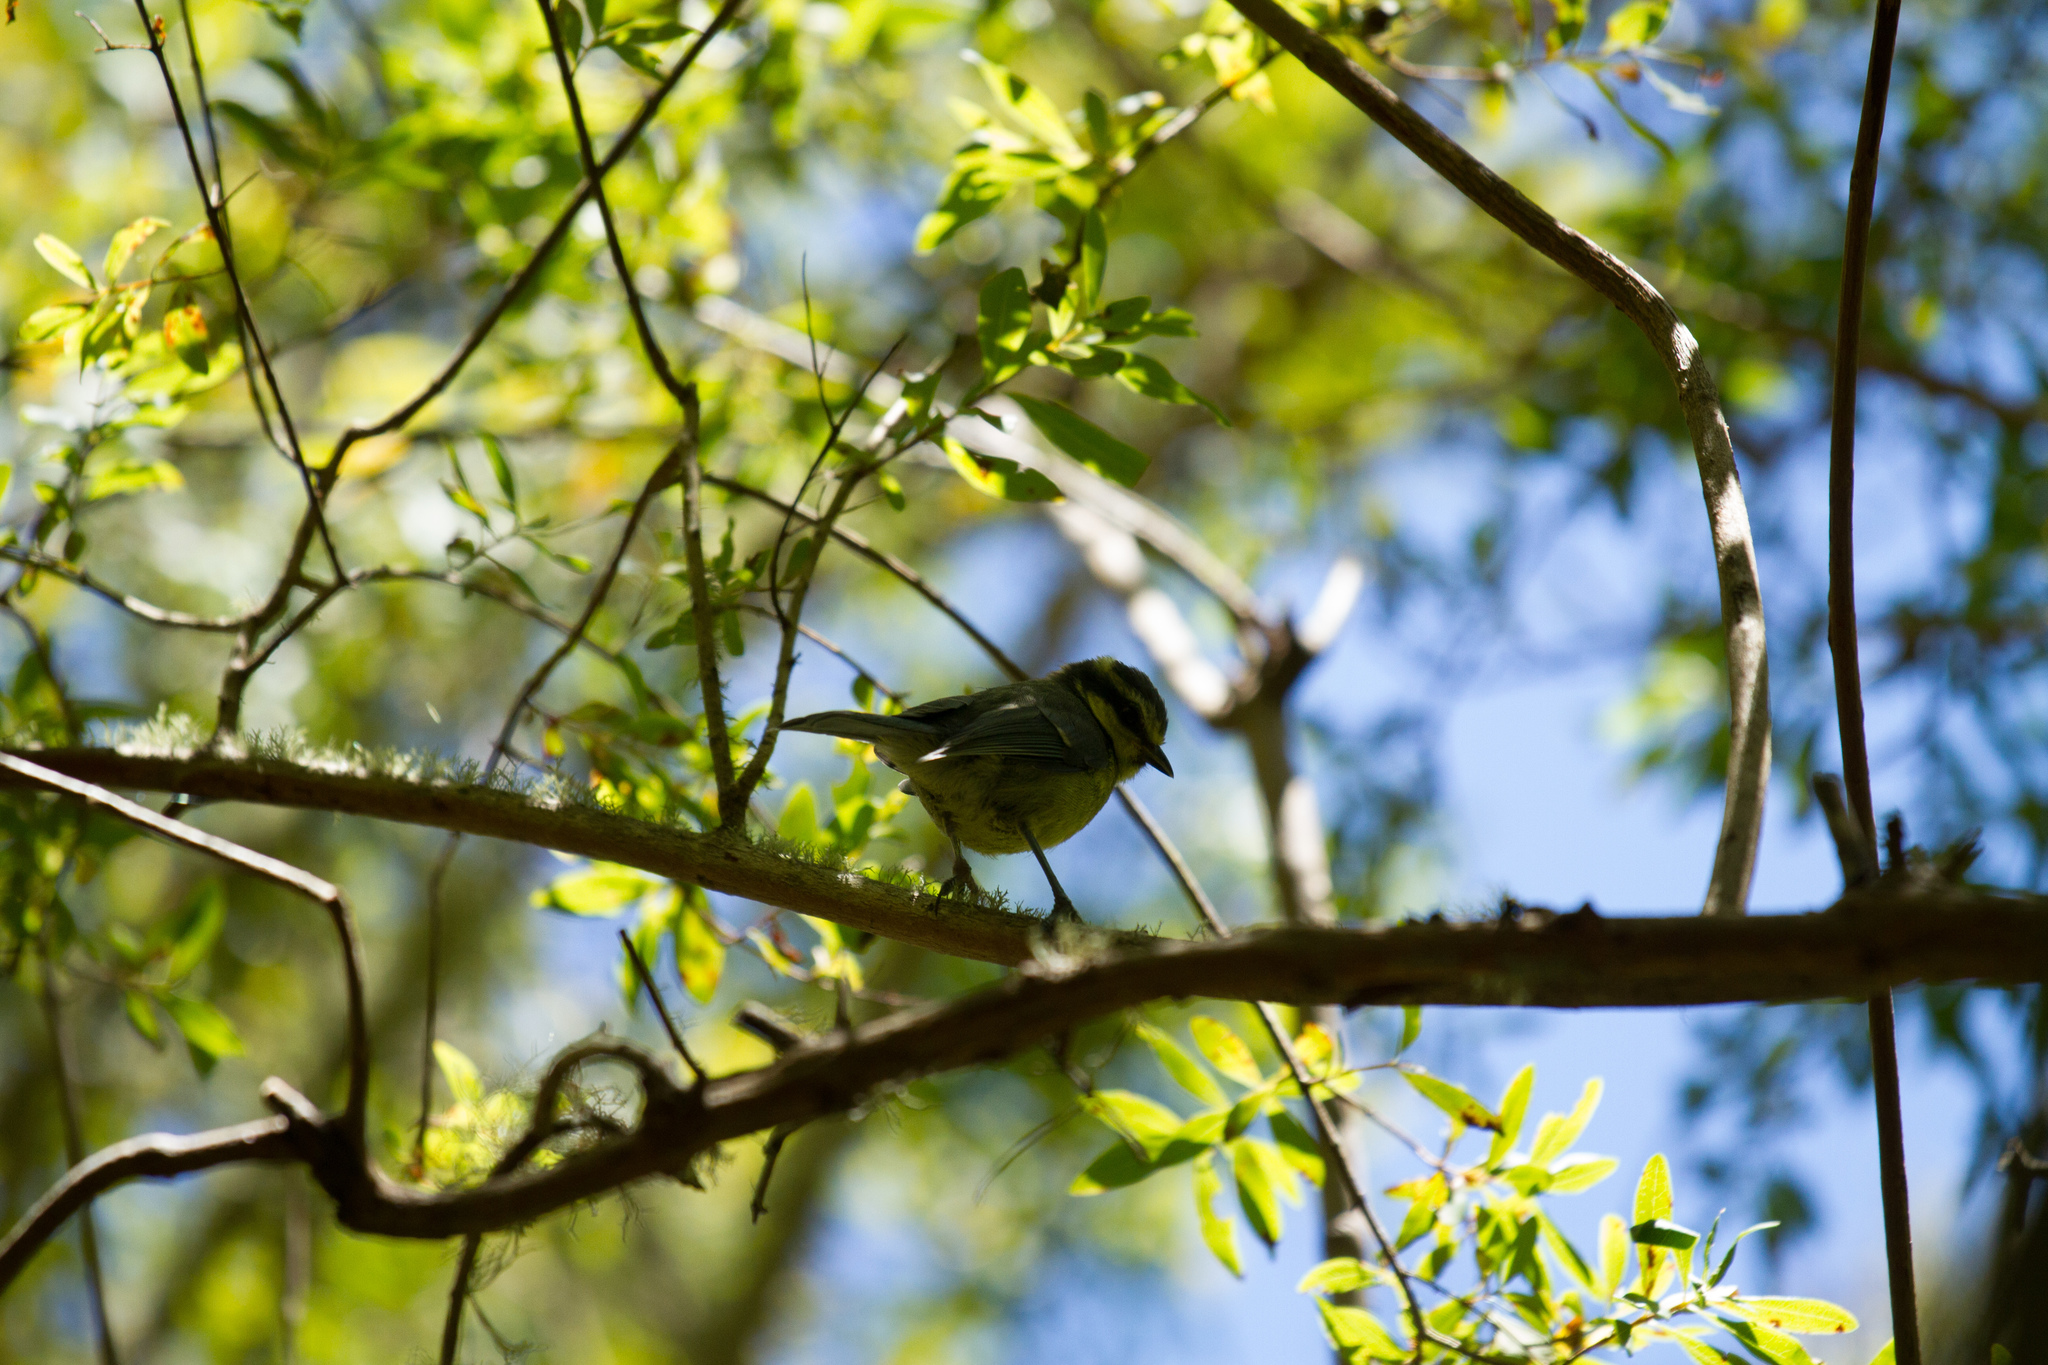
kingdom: Animalia
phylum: Chordata
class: Aves
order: Passeriformes
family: Paridae
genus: Cyanistes
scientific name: Cyanistes teneriffae
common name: African blue tit
